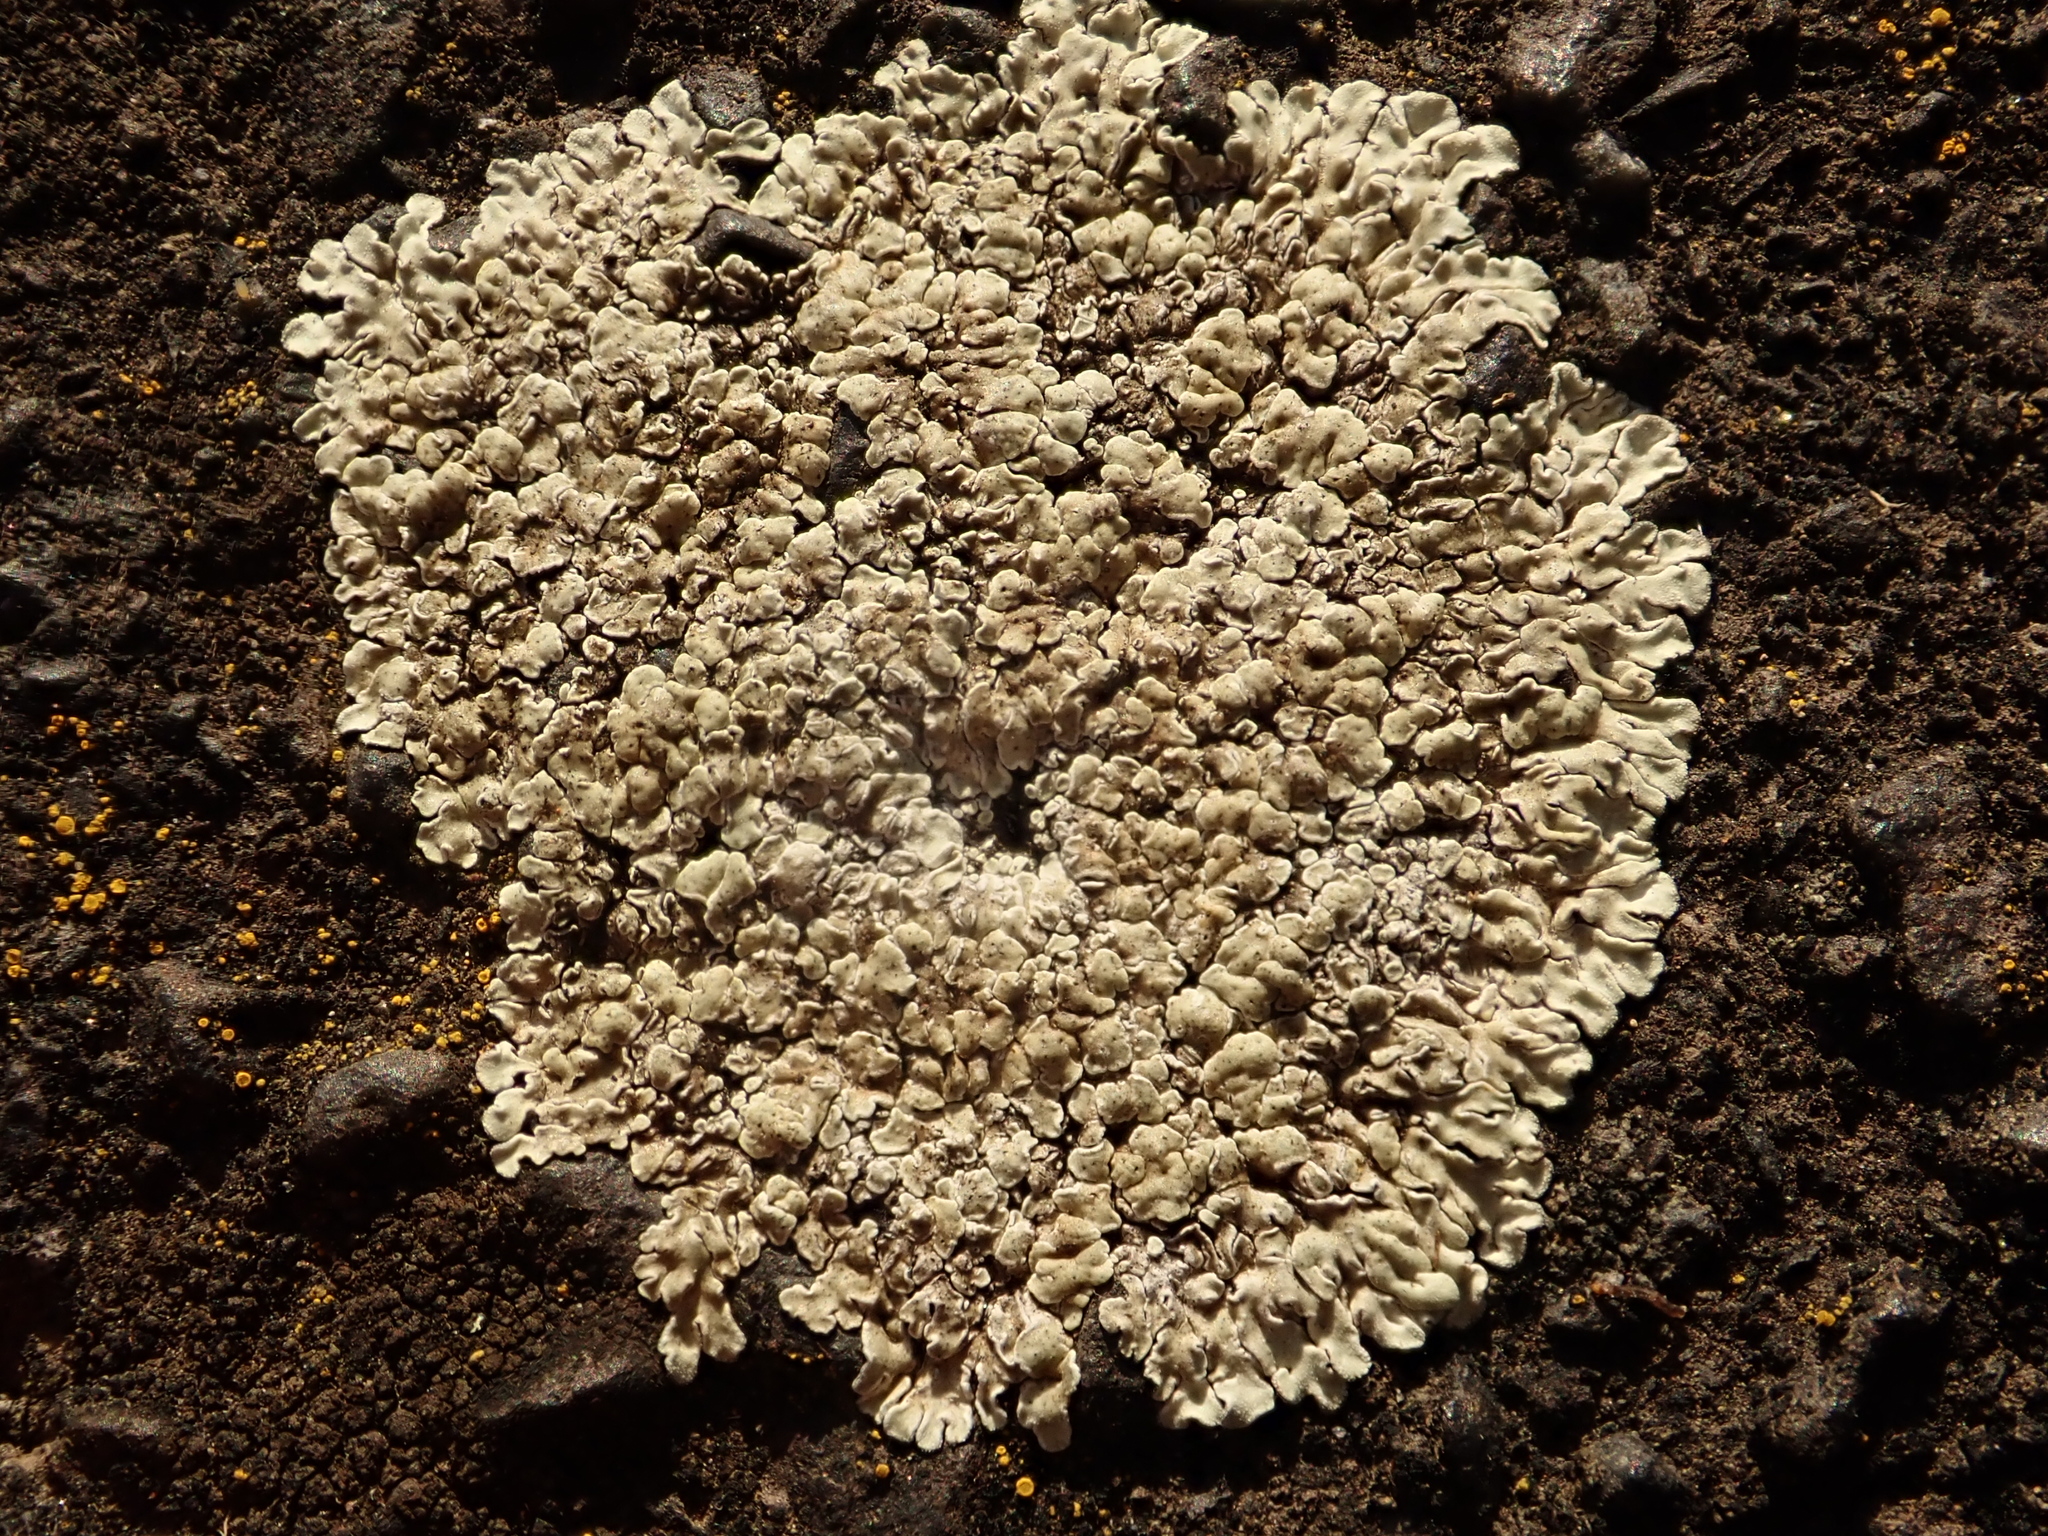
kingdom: Fungi
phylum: Ascomycota
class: Lecanoromycetes
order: Lecanorales
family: Lecanoraceae
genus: Protoparmeliopsis
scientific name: Protoparmeliopsis muralis
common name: Stonewall rim lichen
